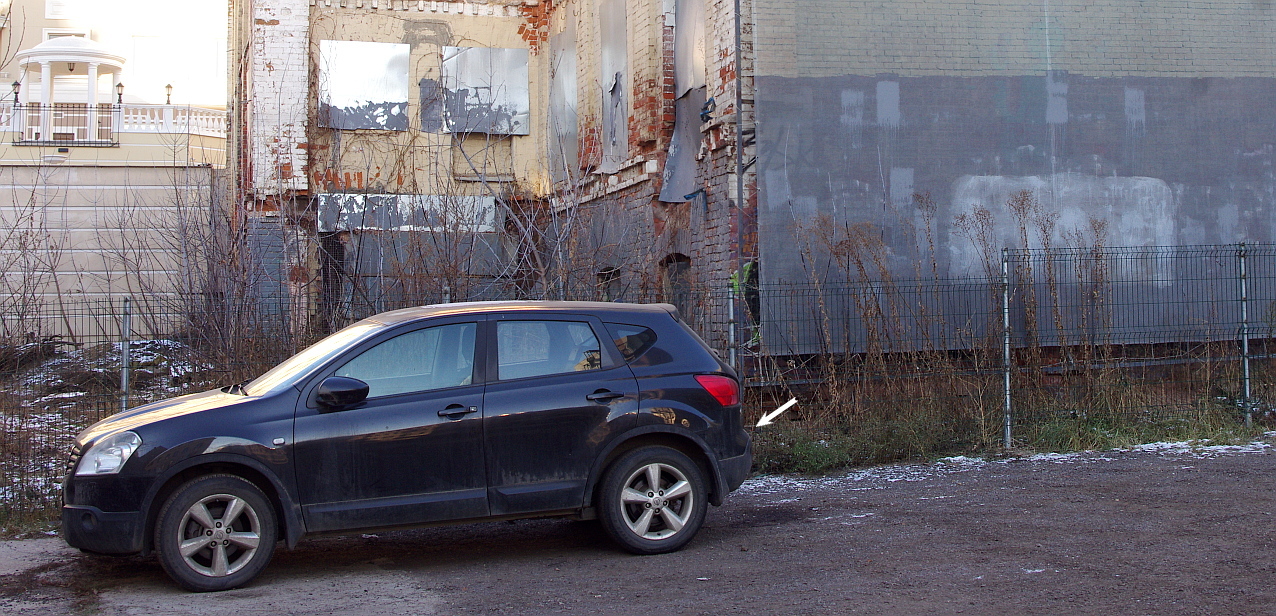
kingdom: Plantae
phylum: Tracheophyta
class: Magnoliopsida
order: Solanales
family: Solanaceae
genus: Solanum
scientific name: Solanum dulcamara
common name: Climbing nightshade
